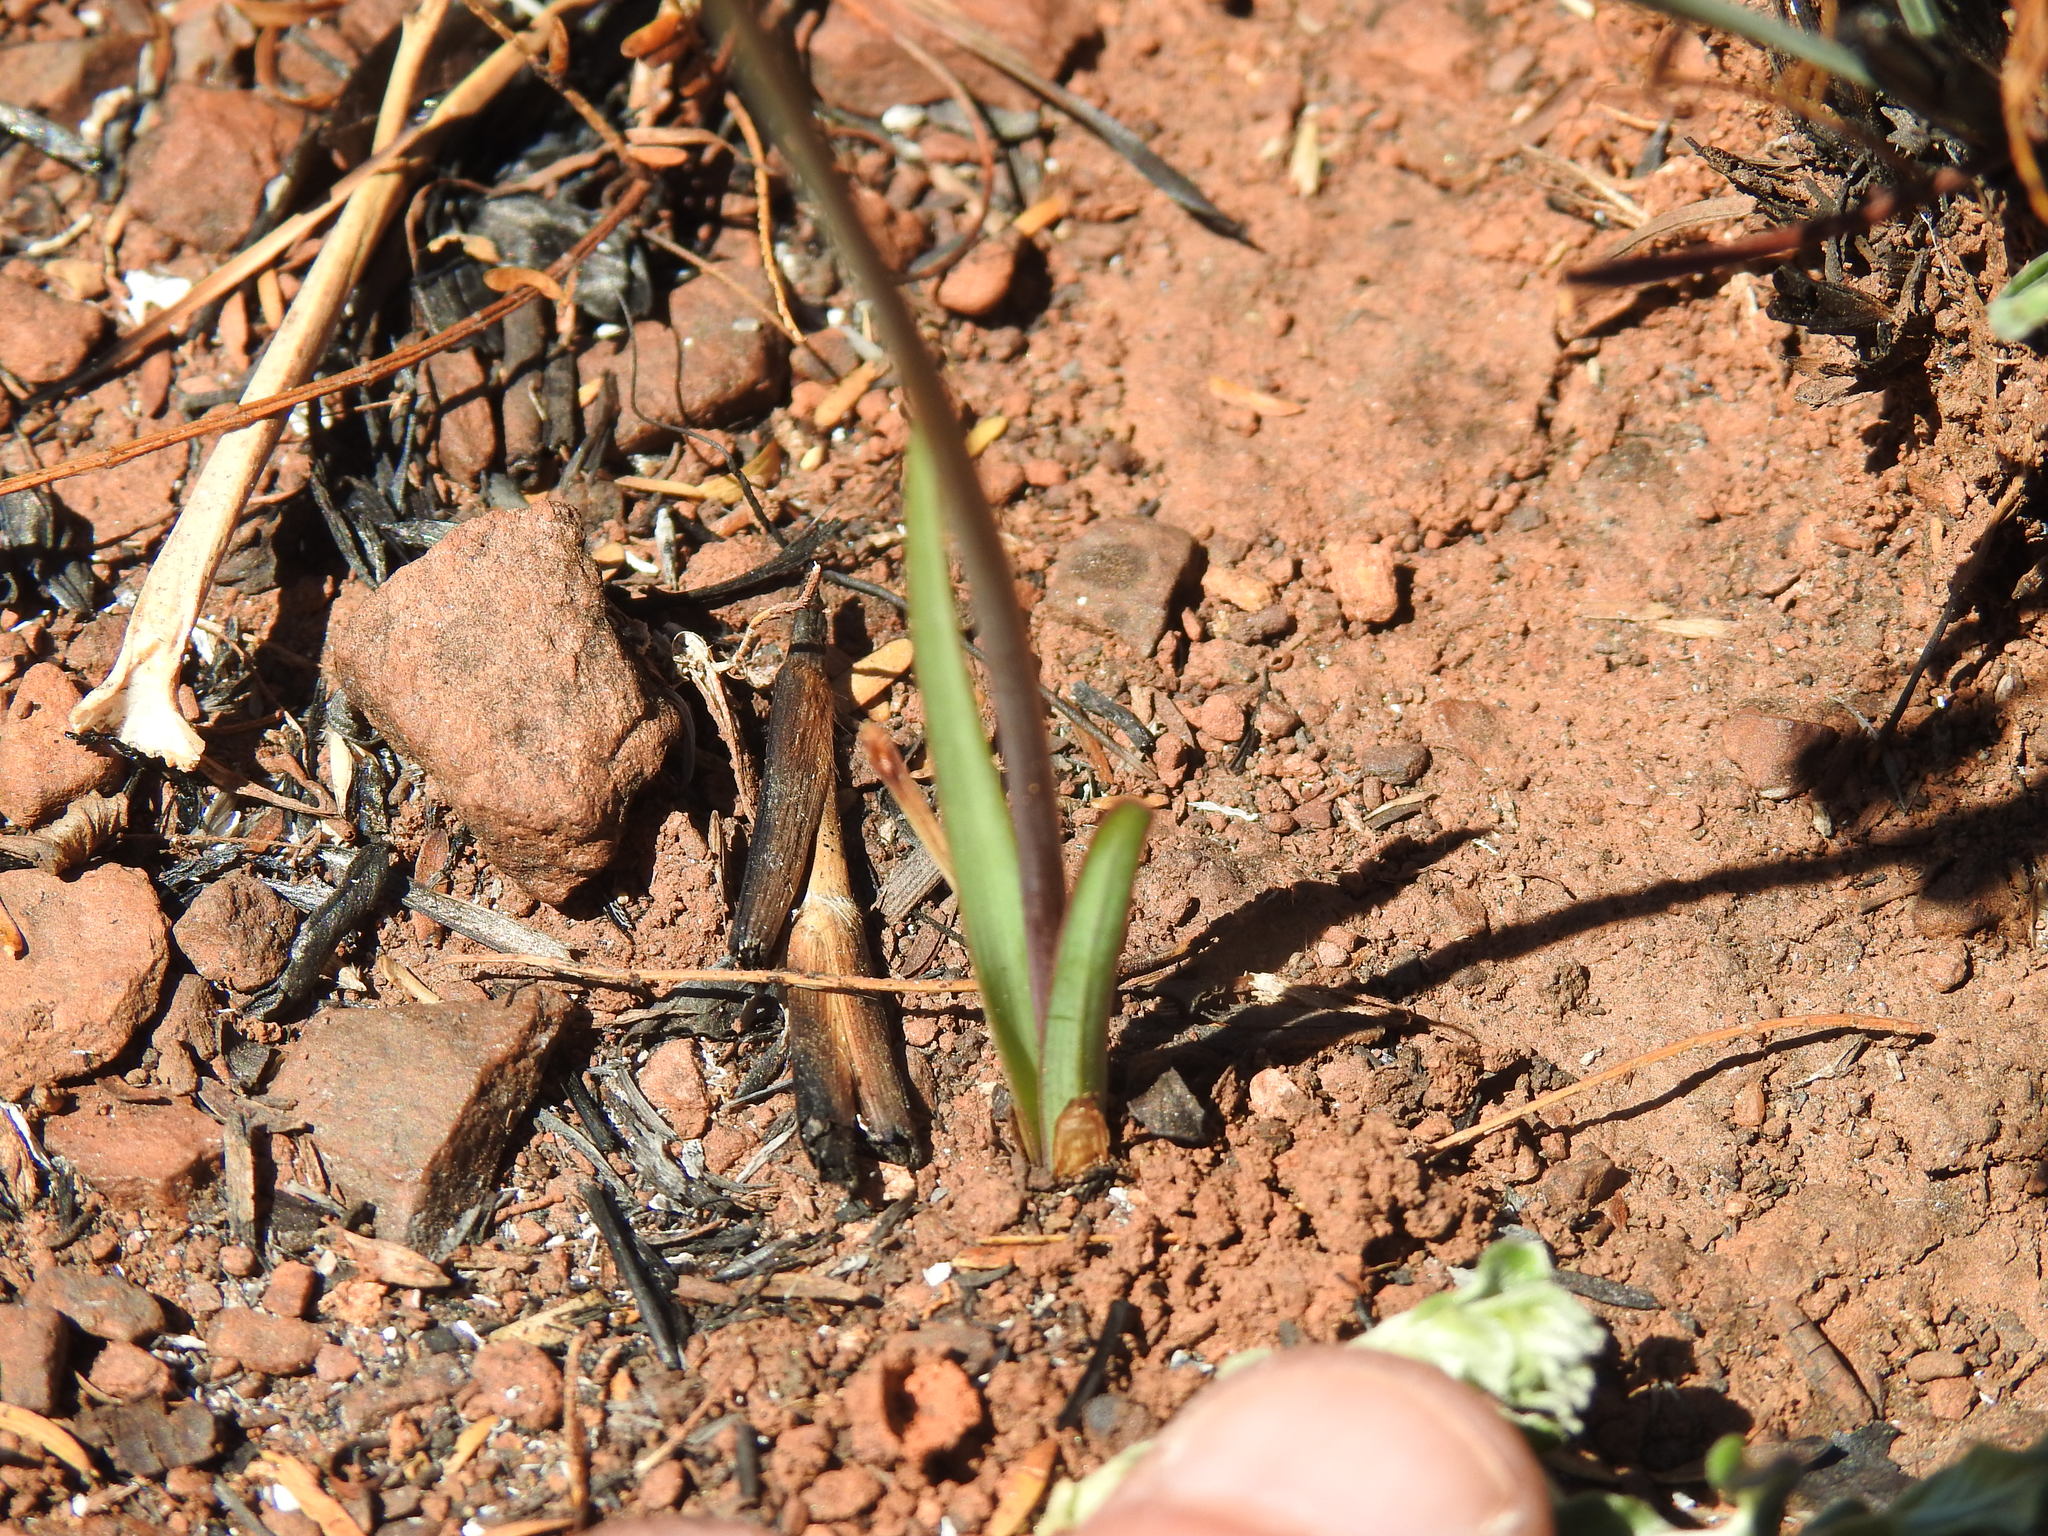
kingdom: Plantae
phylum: Tracheophyta
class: Liliopsida
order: Asparagales
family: Amaryllidaceae
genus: Tulbaghia
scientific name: Tulbaghia acutiloba
